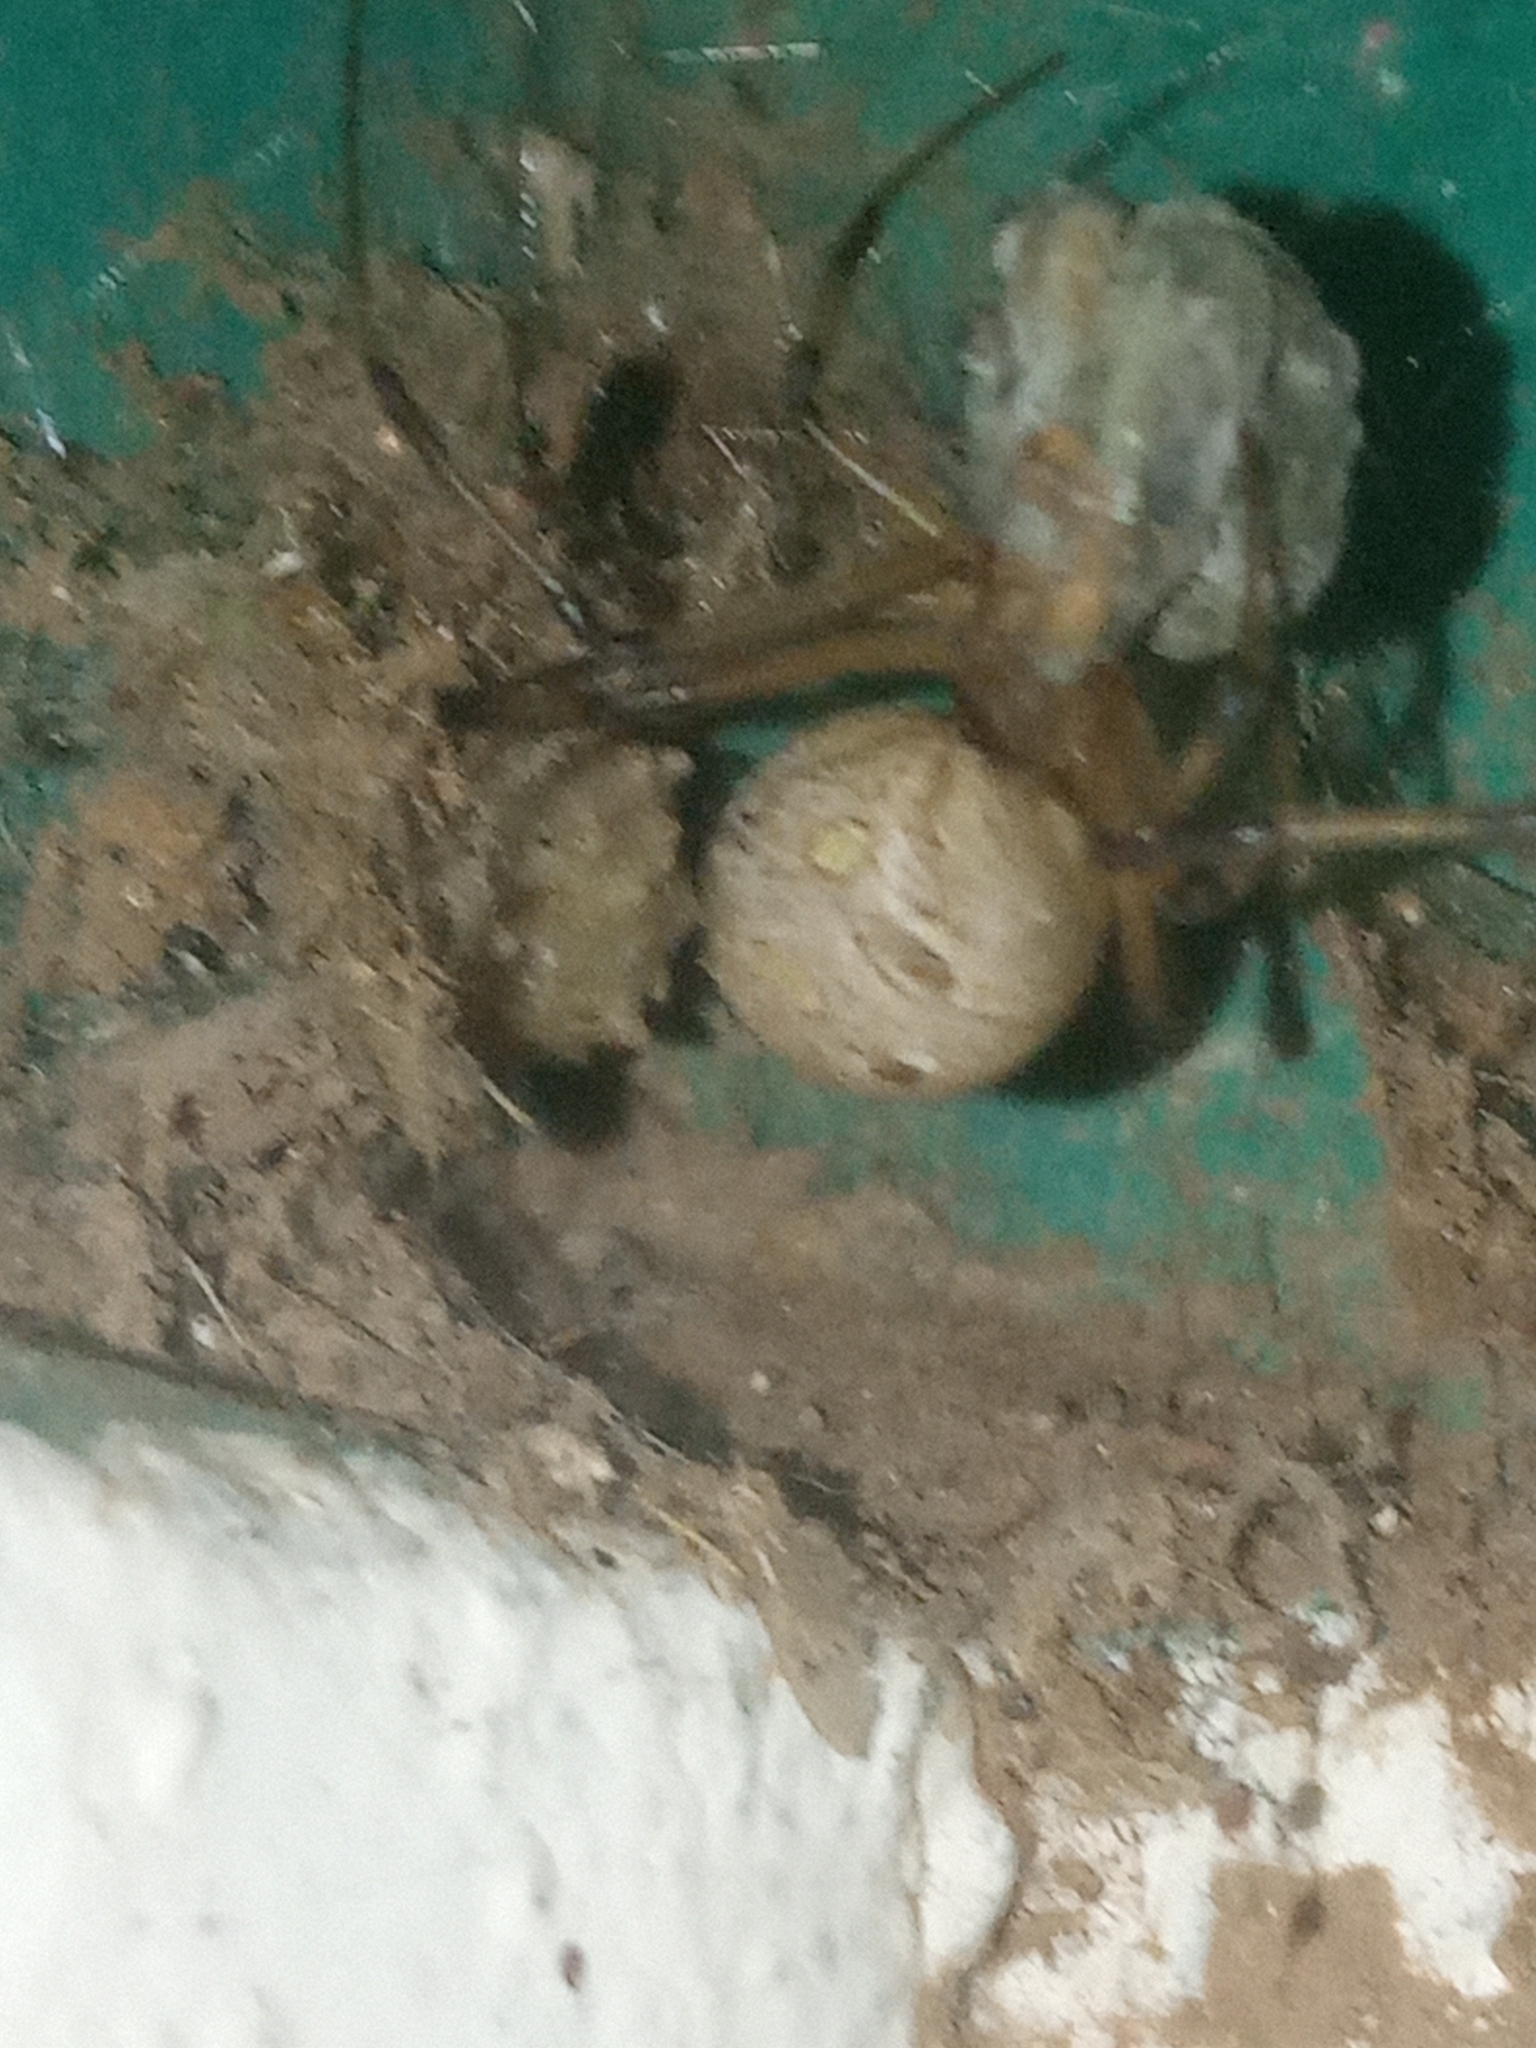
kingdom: Animalia
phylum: Arthropoda
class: Arachnida
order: Araneae
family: Theridiidae
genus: Latrodectus
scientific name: Latrodectus geometricus
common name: Brown widow spider
